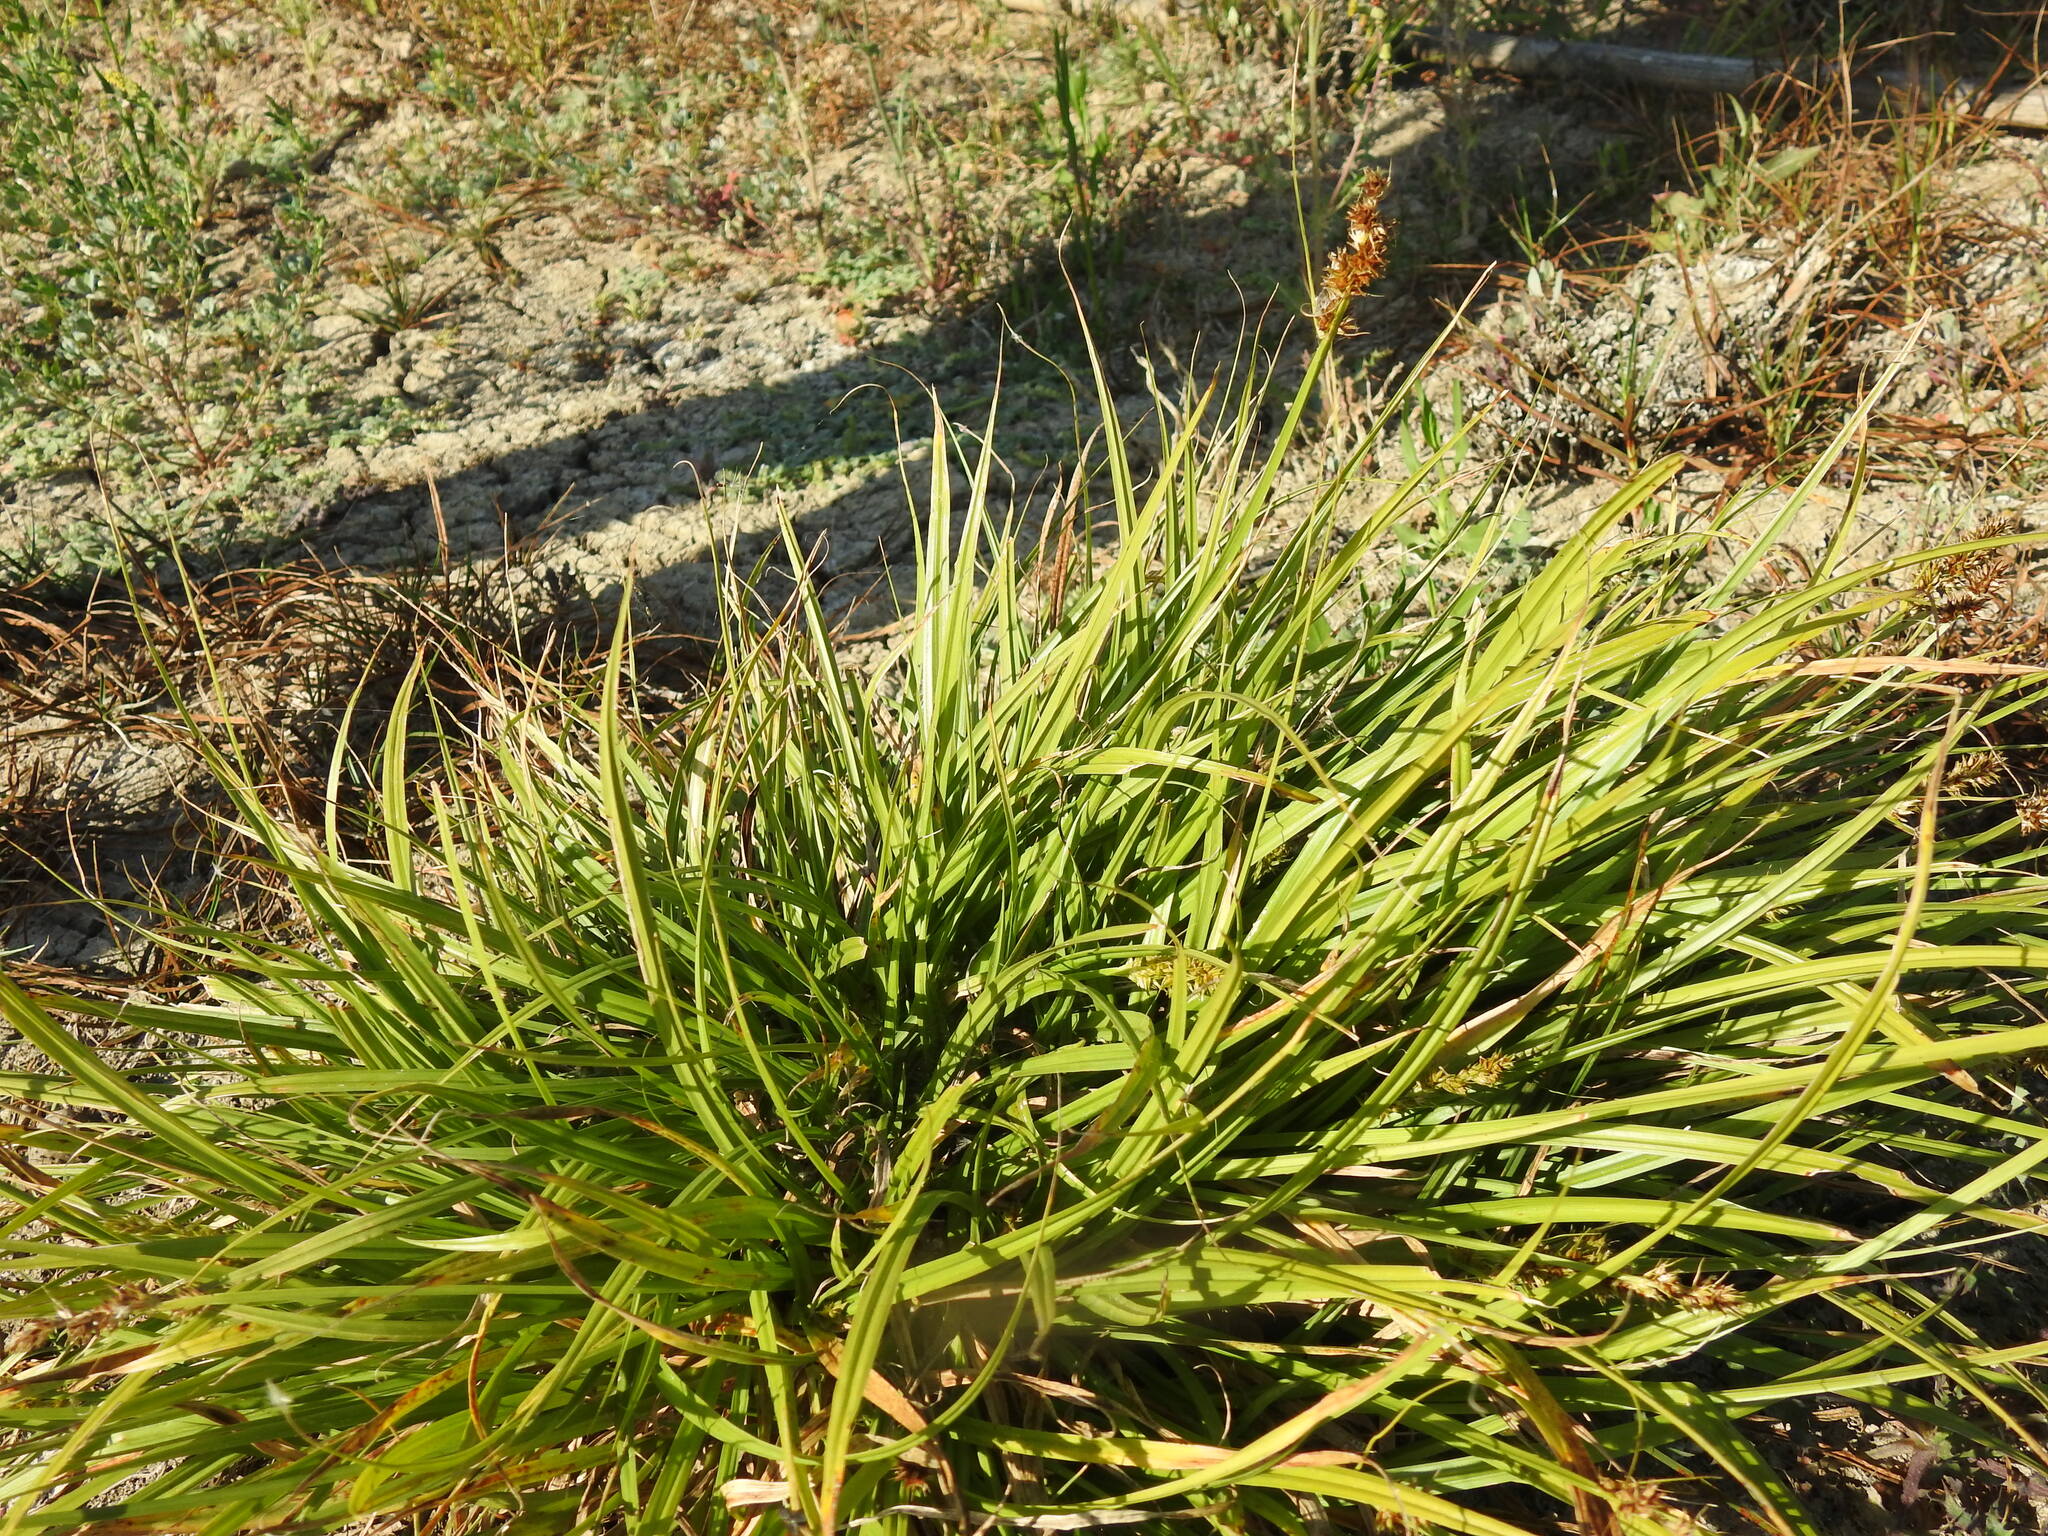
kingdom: Plantae
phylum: Tracheophyta
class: Liliopsida
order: Poales
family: Cyperaceae
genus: Carex
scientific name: Carex otrubae
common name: False fox-sedge
